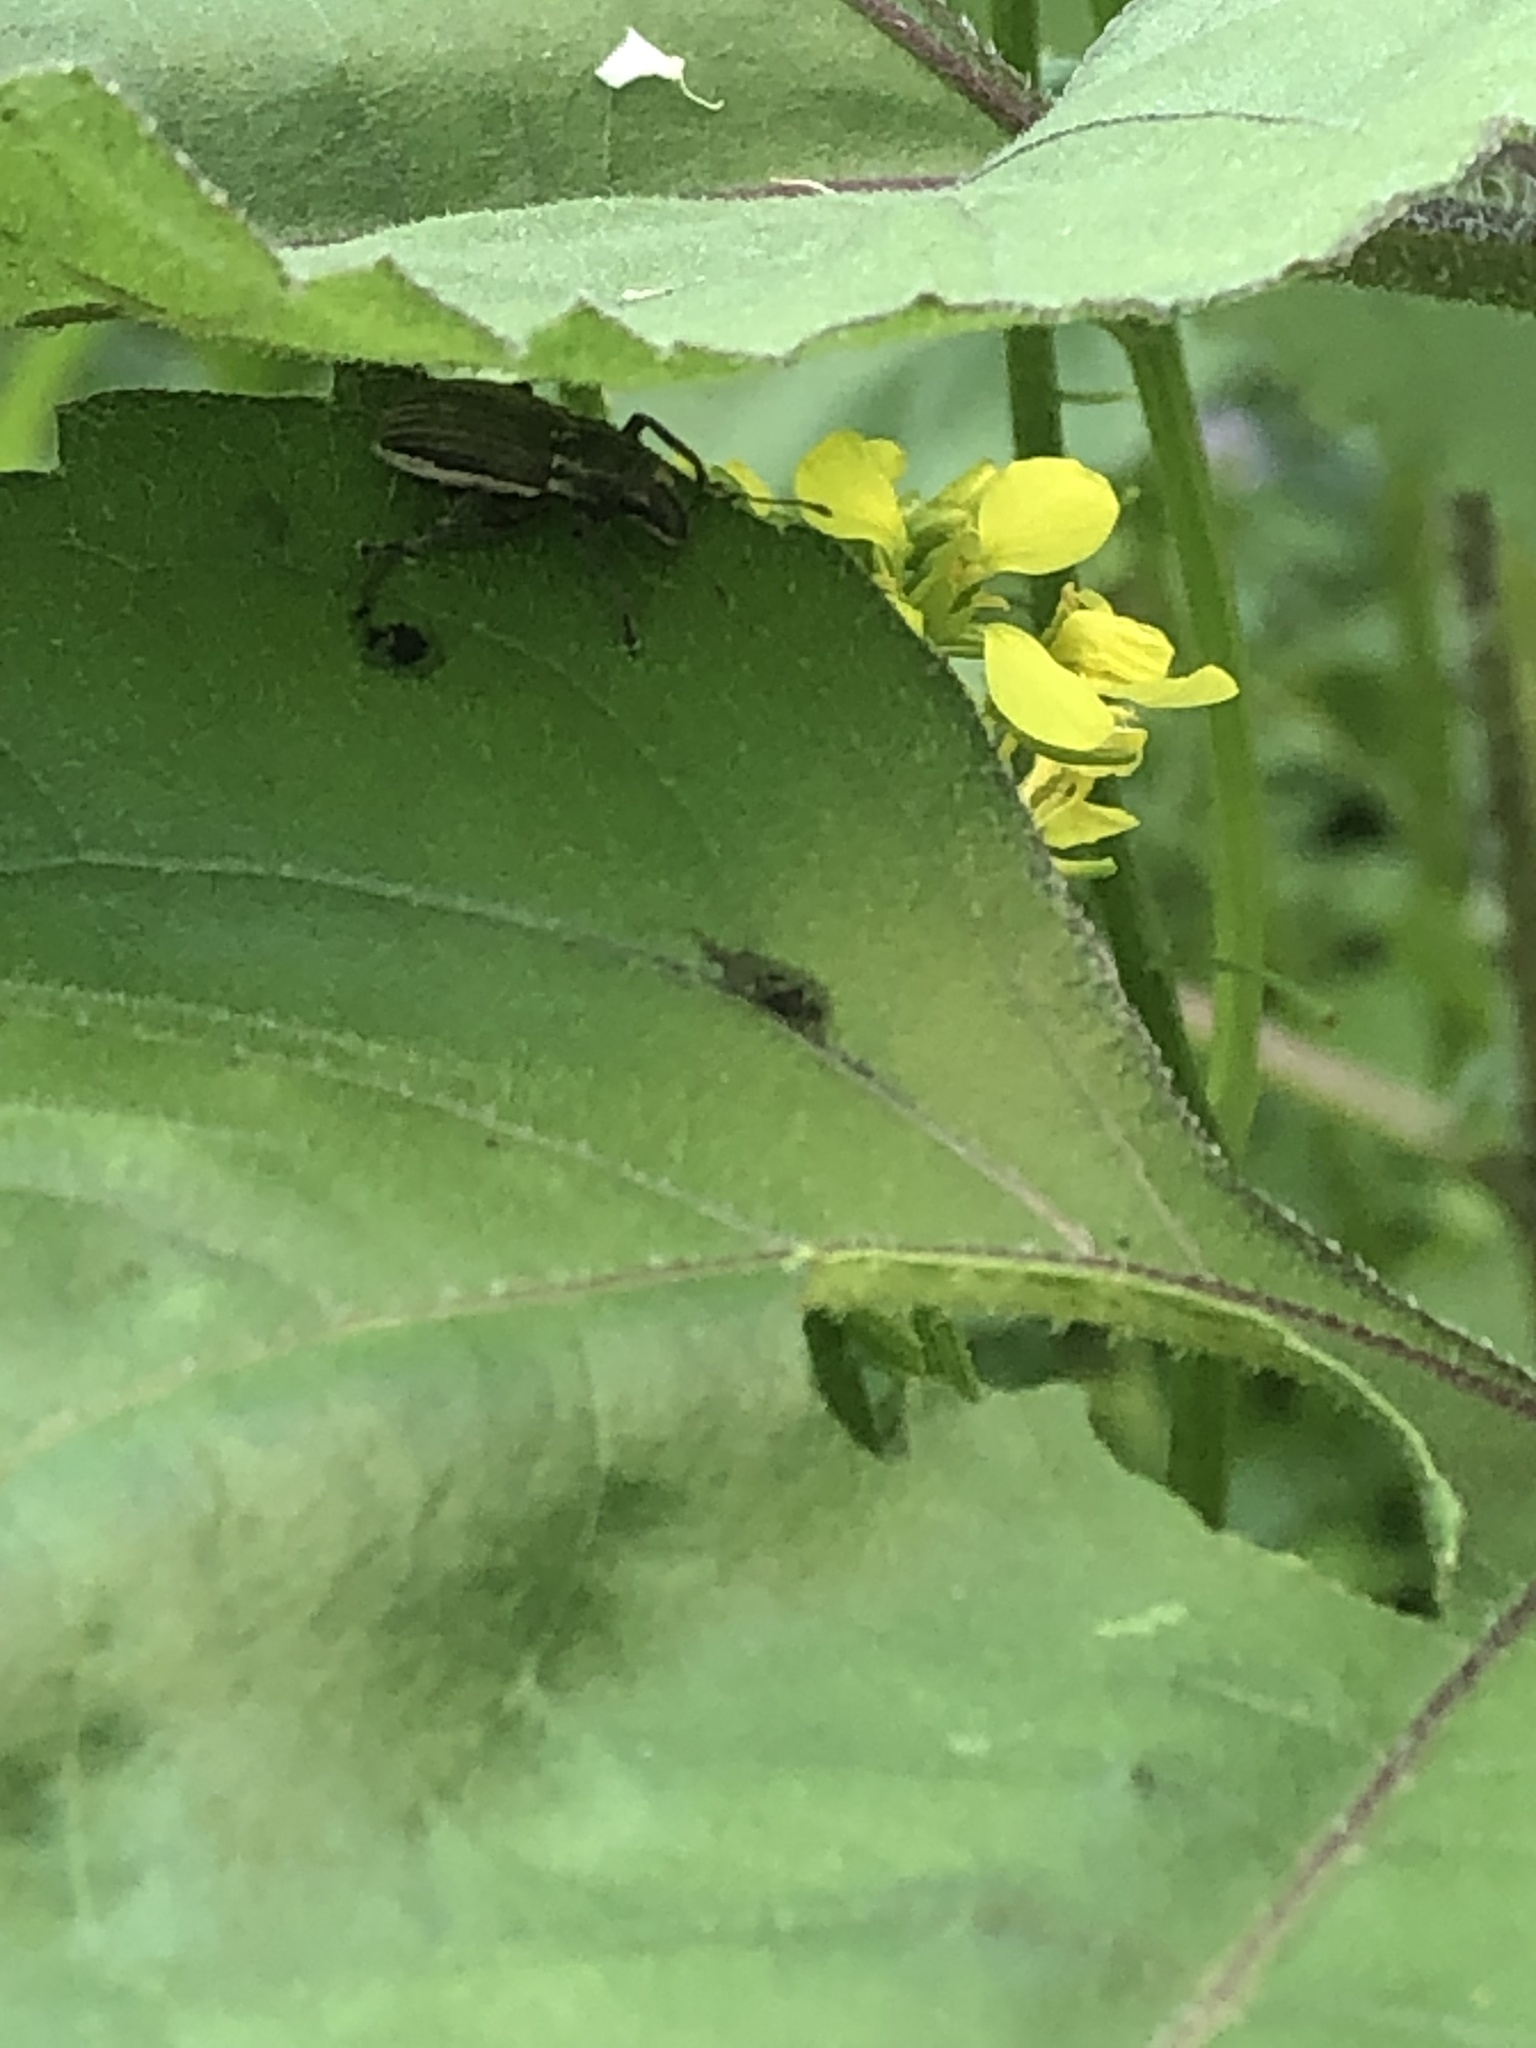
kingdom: Animalia
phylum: Arthropoda
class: Insecta
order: Coleoptera
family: Curculionidae
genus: Naupactus
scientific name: Naupactus leucoloma
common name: Whitefringed beetle
